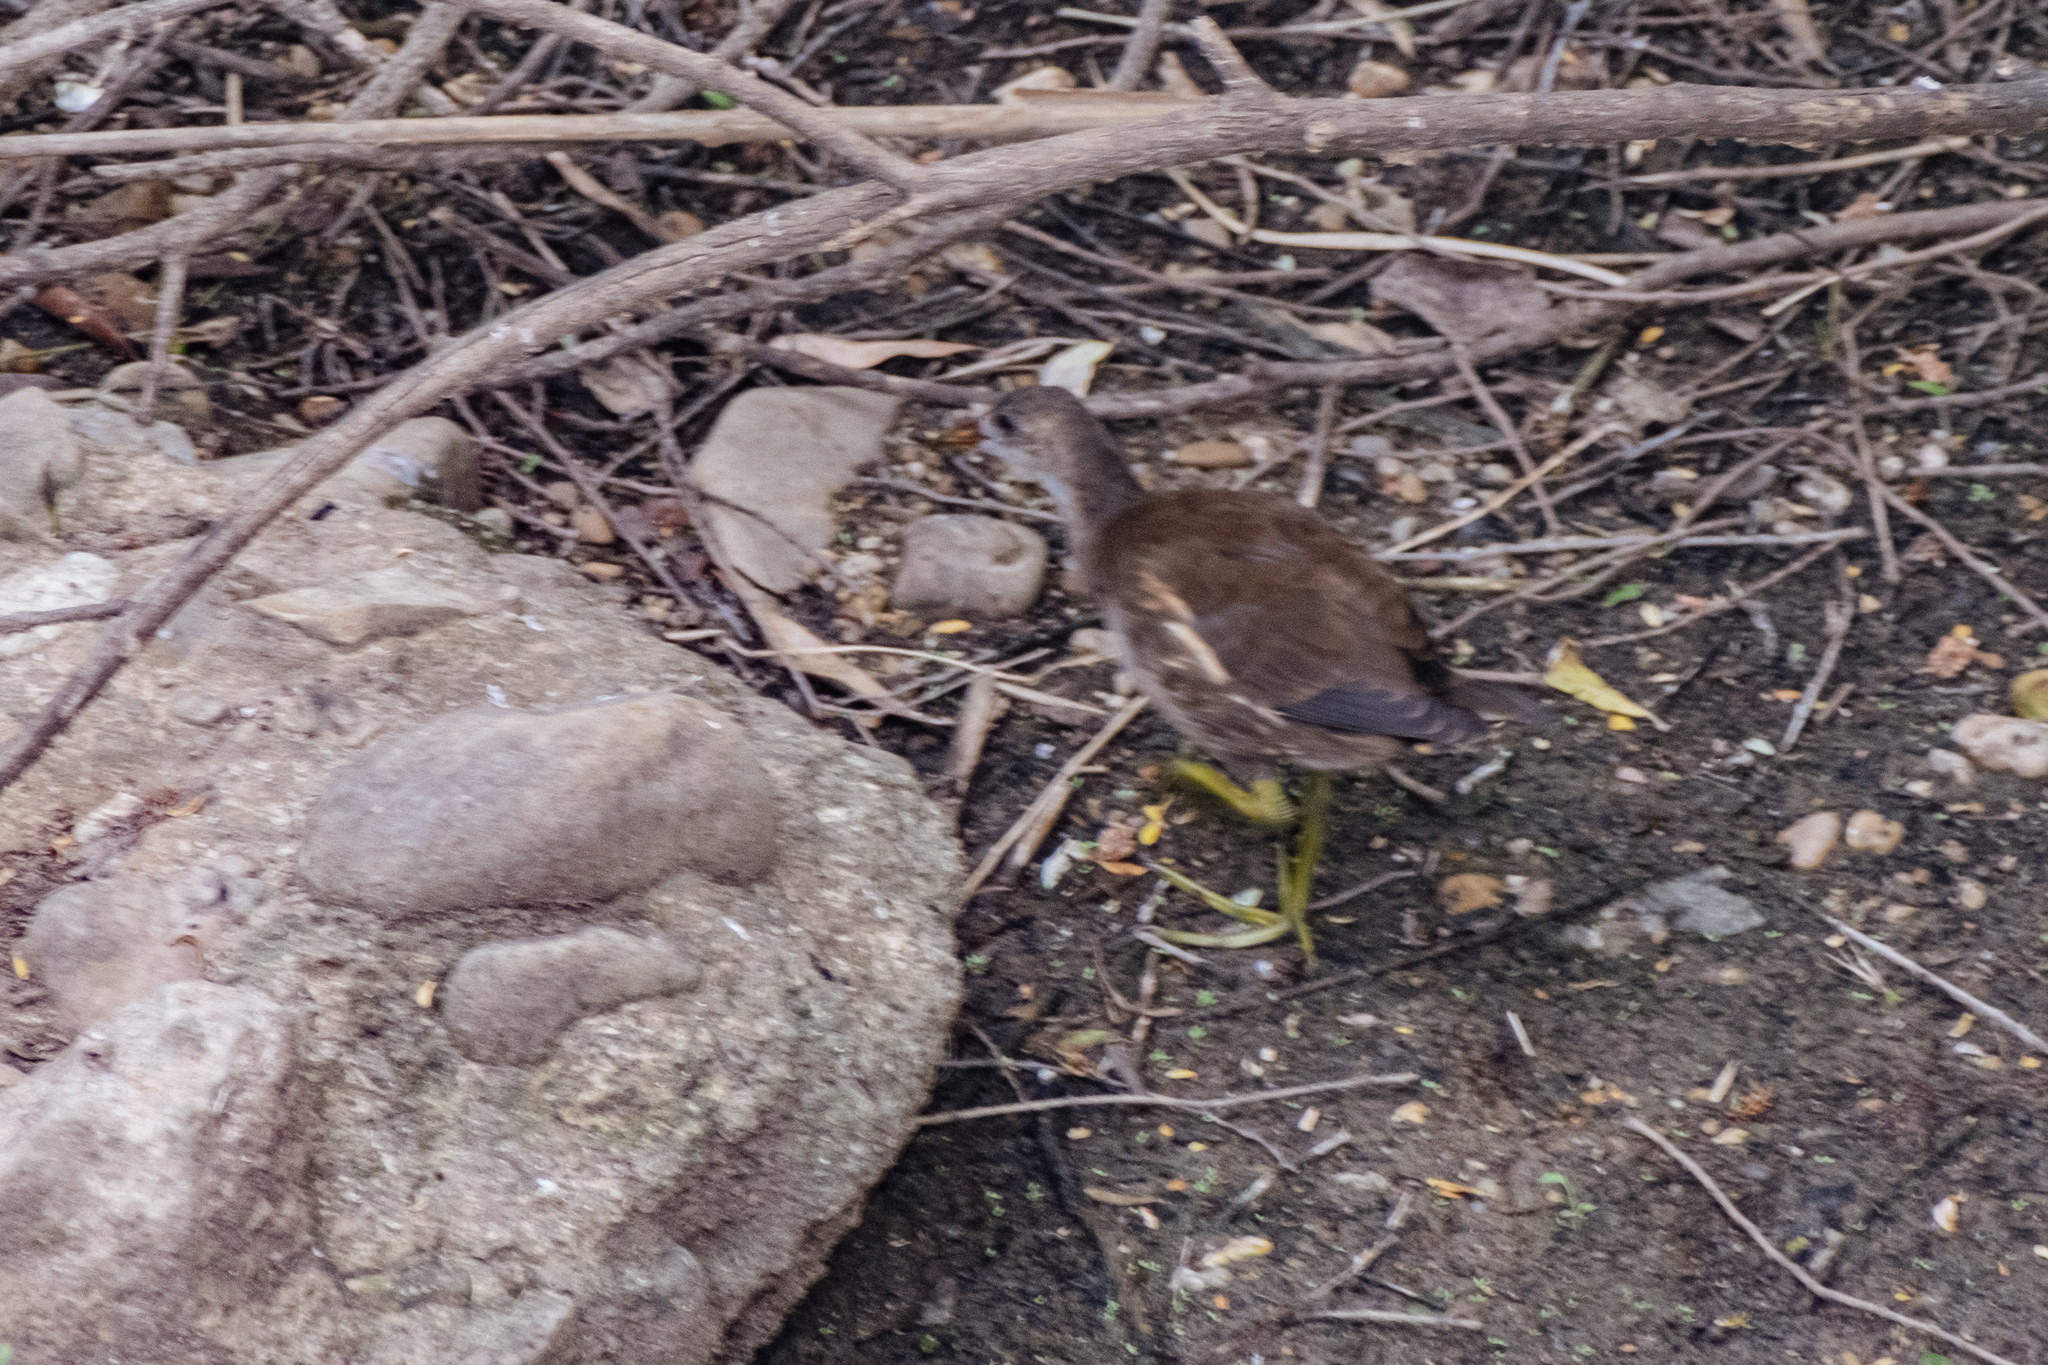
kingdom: Animalia
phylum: Chordata
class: Aves
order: Gruiformes
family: Rallidae
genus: Gallinula
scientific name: Gallinula chloropus
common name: Common moorhen
